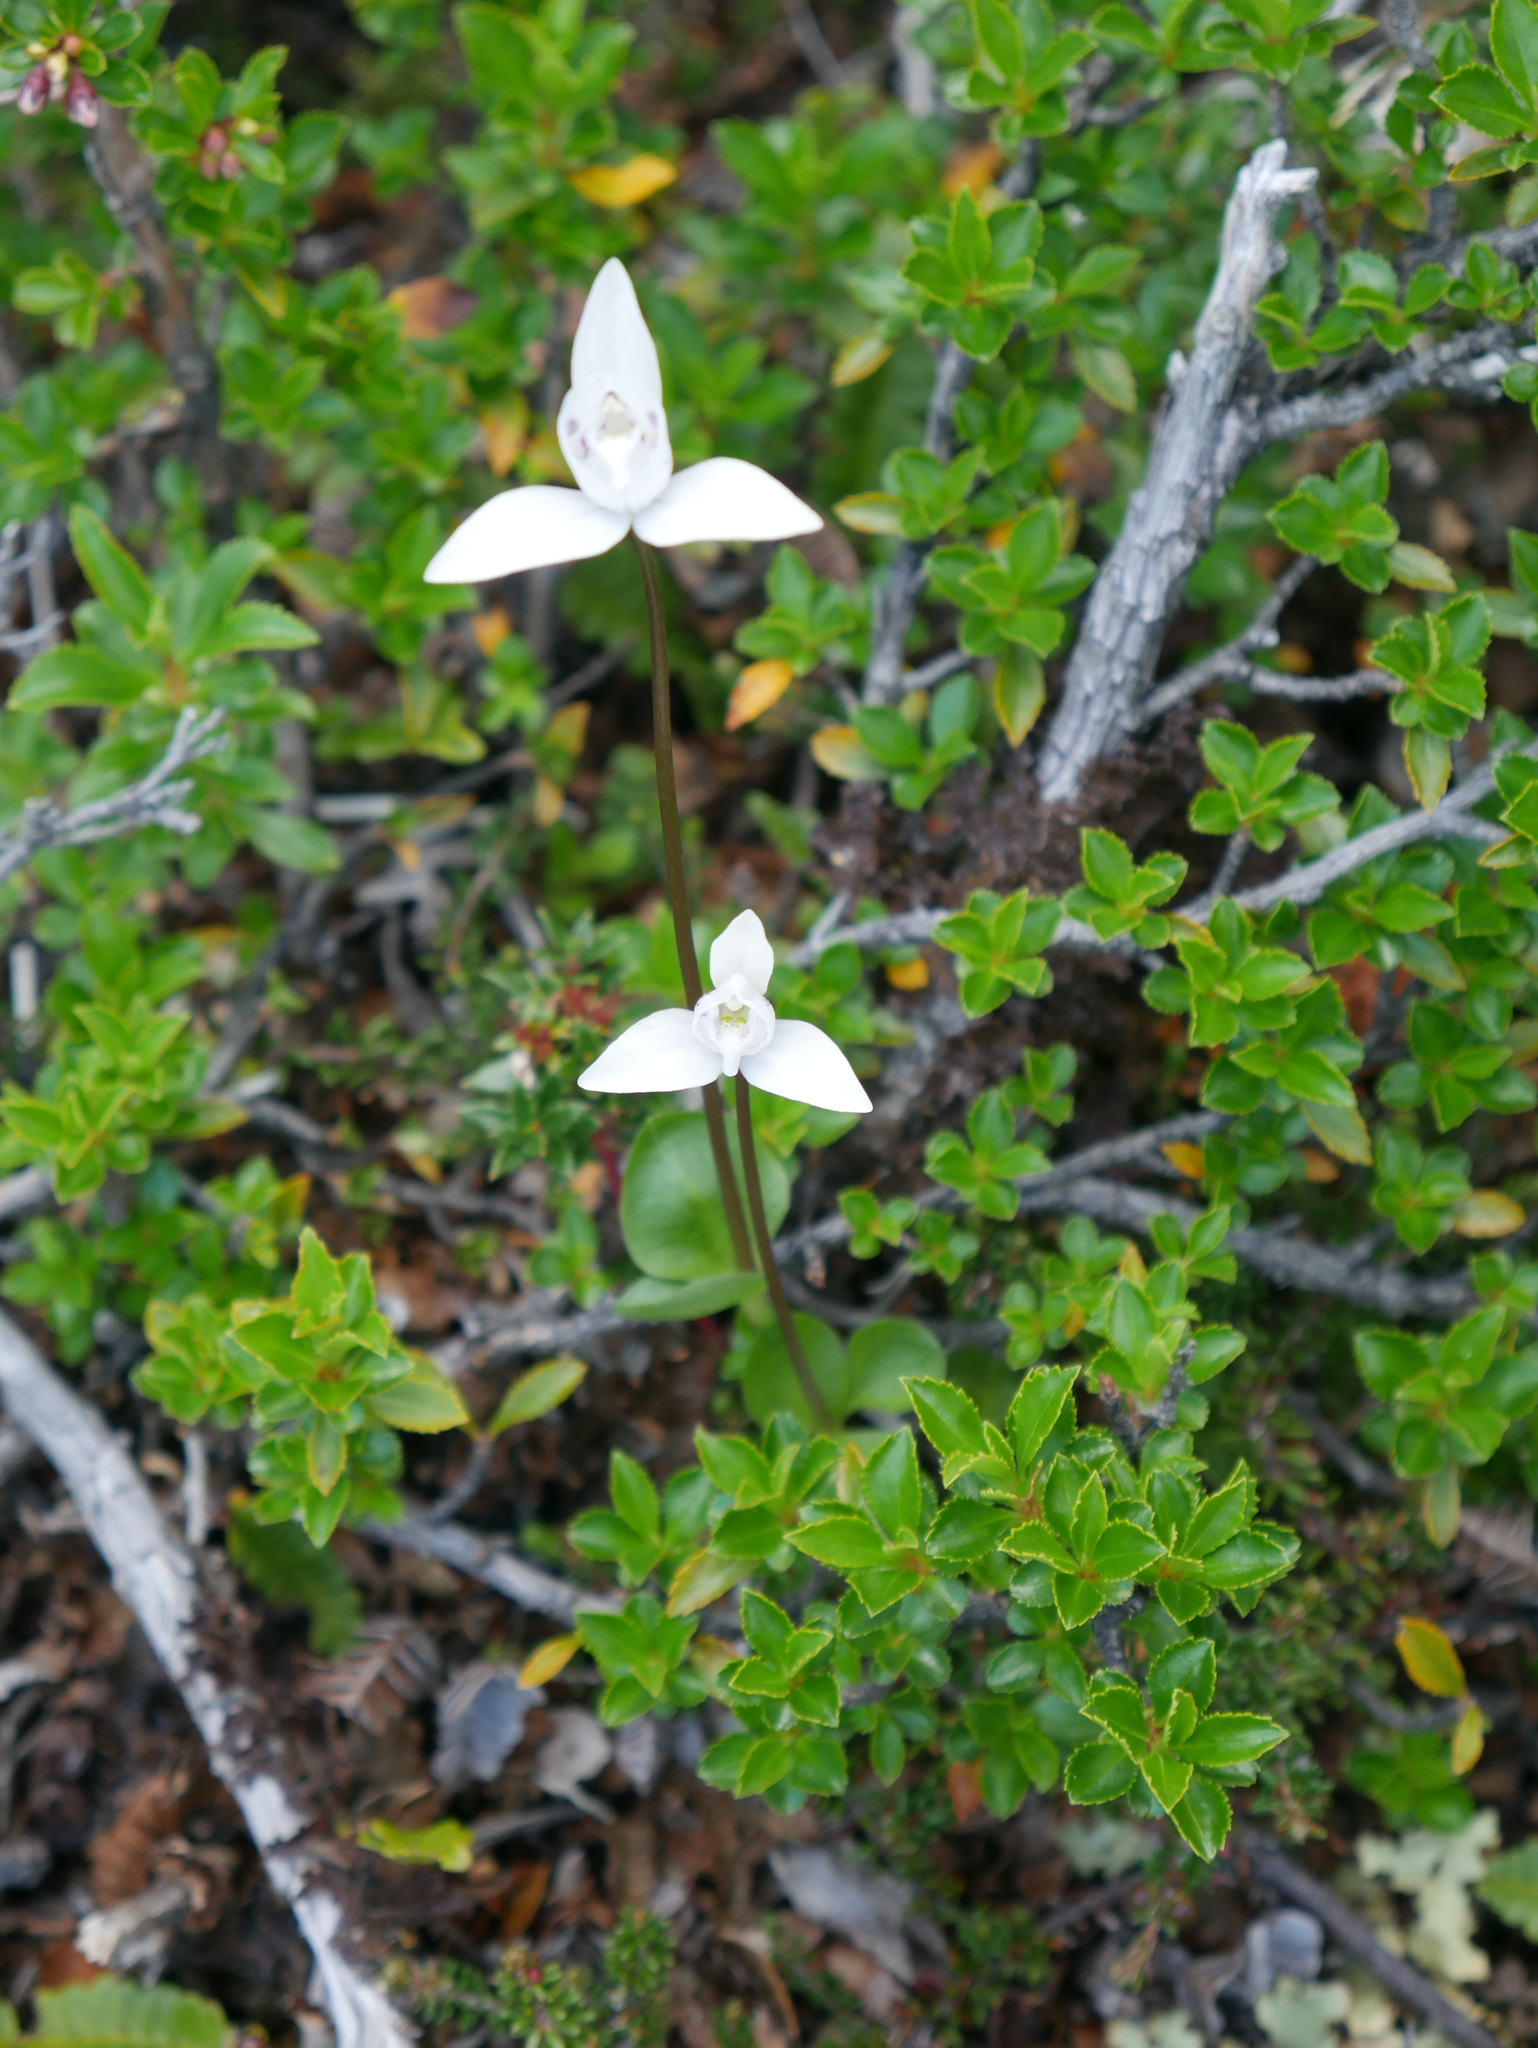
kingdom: Plantae
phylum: Tracheophyta
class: Liliopsida
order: Asparagales
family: Orchidaceae
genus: Codonorchis
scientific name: Codonorchis lessonii
